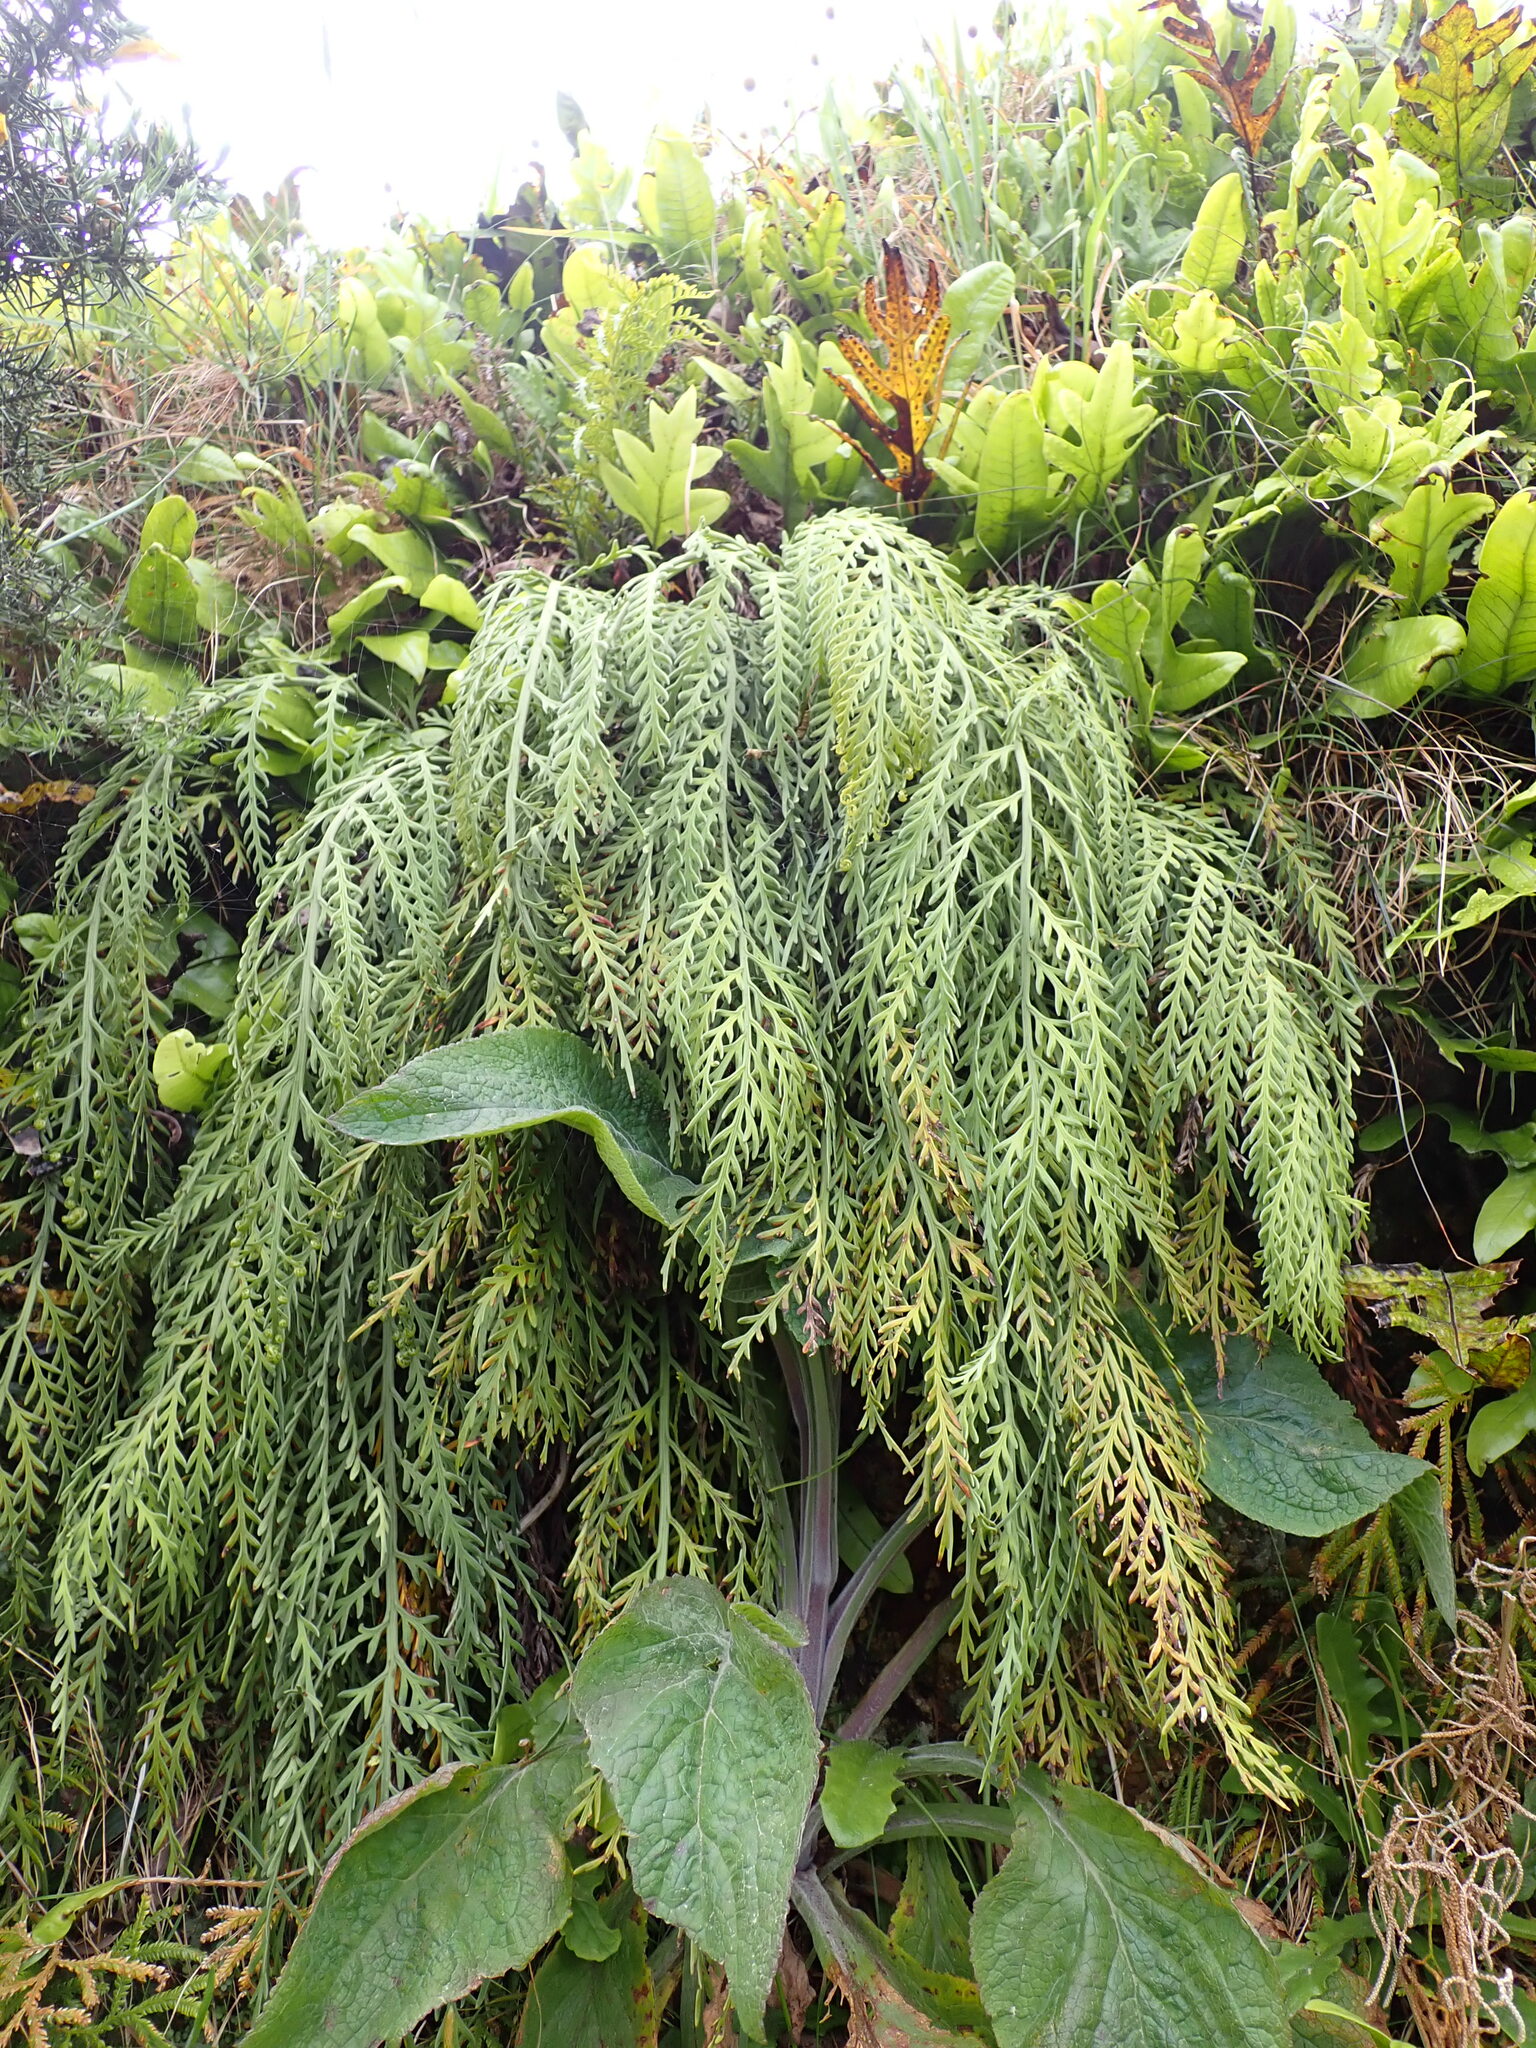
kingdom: Plantae
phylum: Tracheophyta
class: Polypodiopsida
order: Polypodiales
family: Aspleniaceae
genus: Asplenium
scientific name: Asplenium flaccidum
